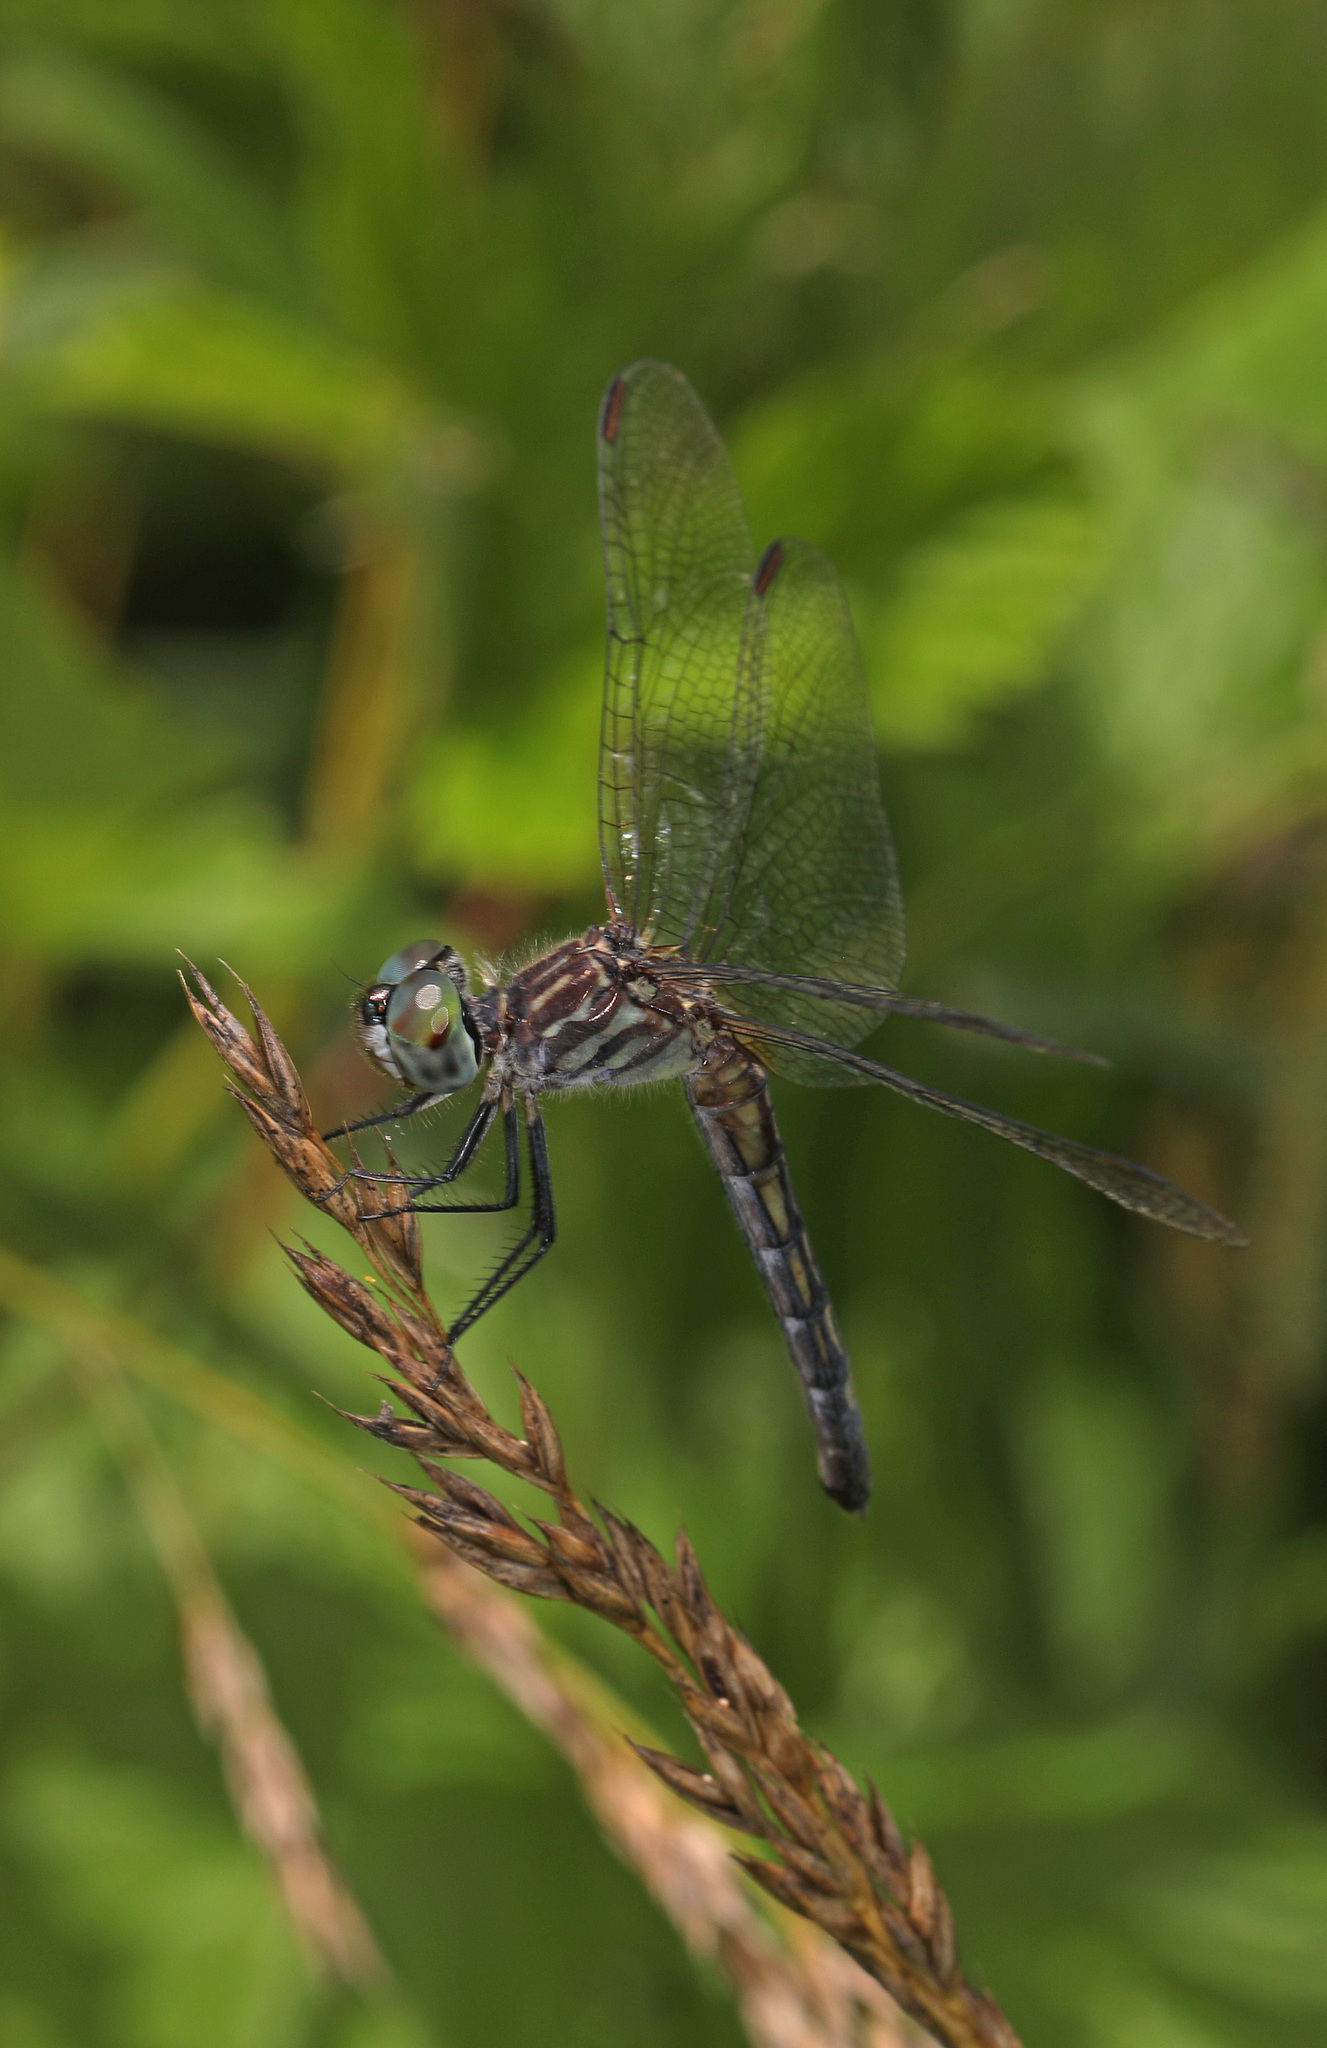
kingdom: Animalia
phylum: Arthropoda
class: Insecta
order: Odonata
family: Libellulidae
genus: Pachydiplax
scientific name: Pachydiplax longipennis
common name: Blue dasher
